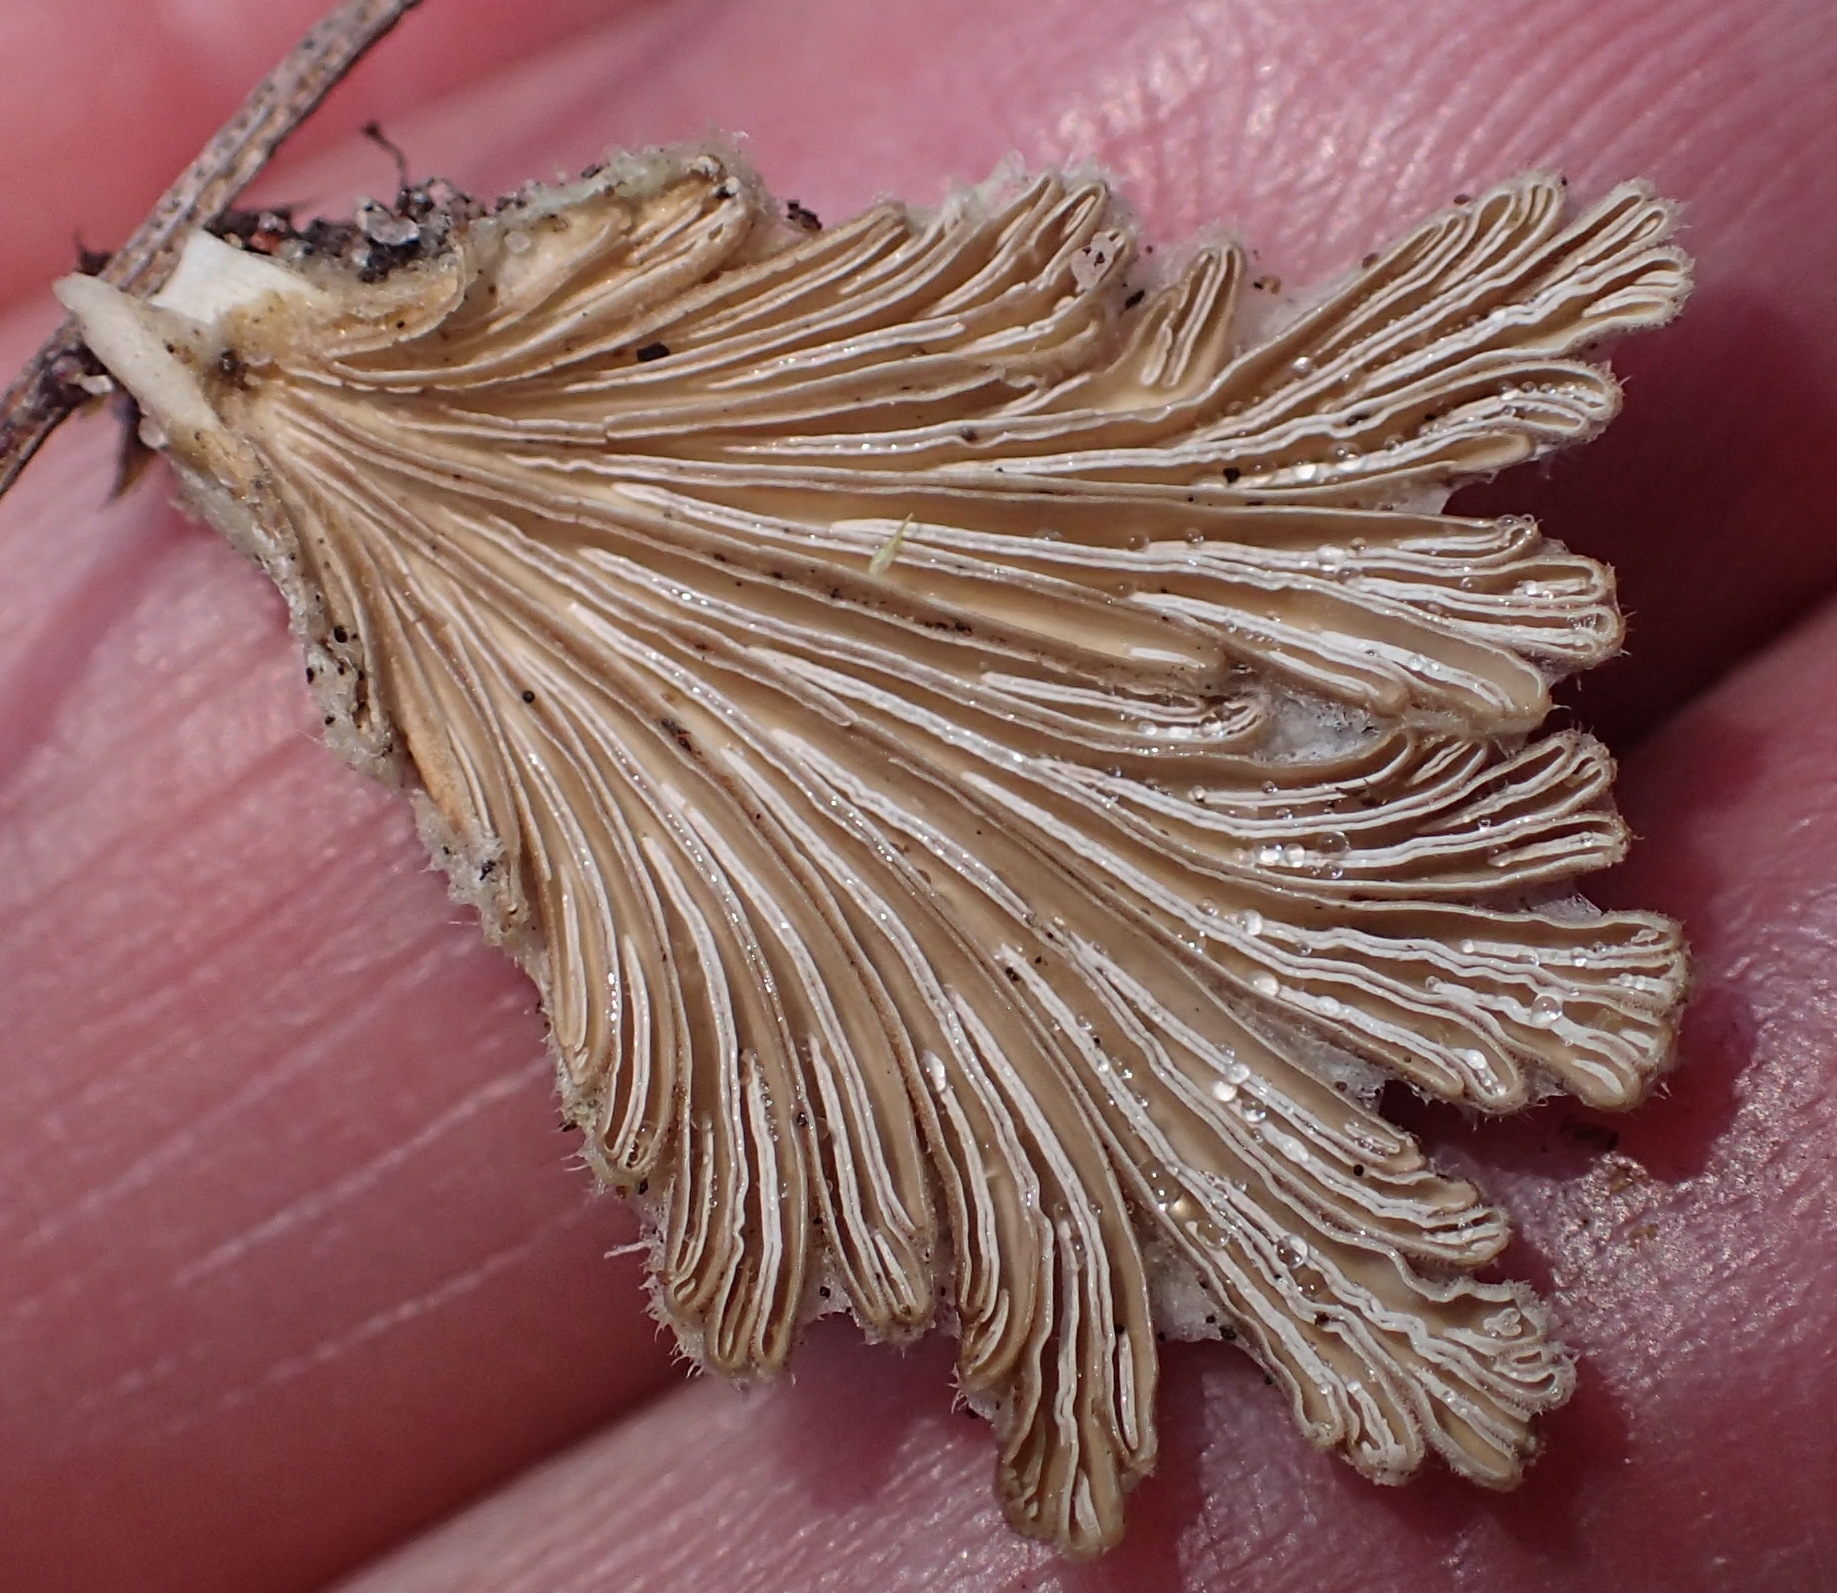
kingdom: Fungi
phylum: Basidiomycota
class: Agaricomycetes
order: Agaricales
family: Schizophyllaceae
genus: Schizophyllum
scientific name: Schizophyllum commune
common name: Common porecrust
